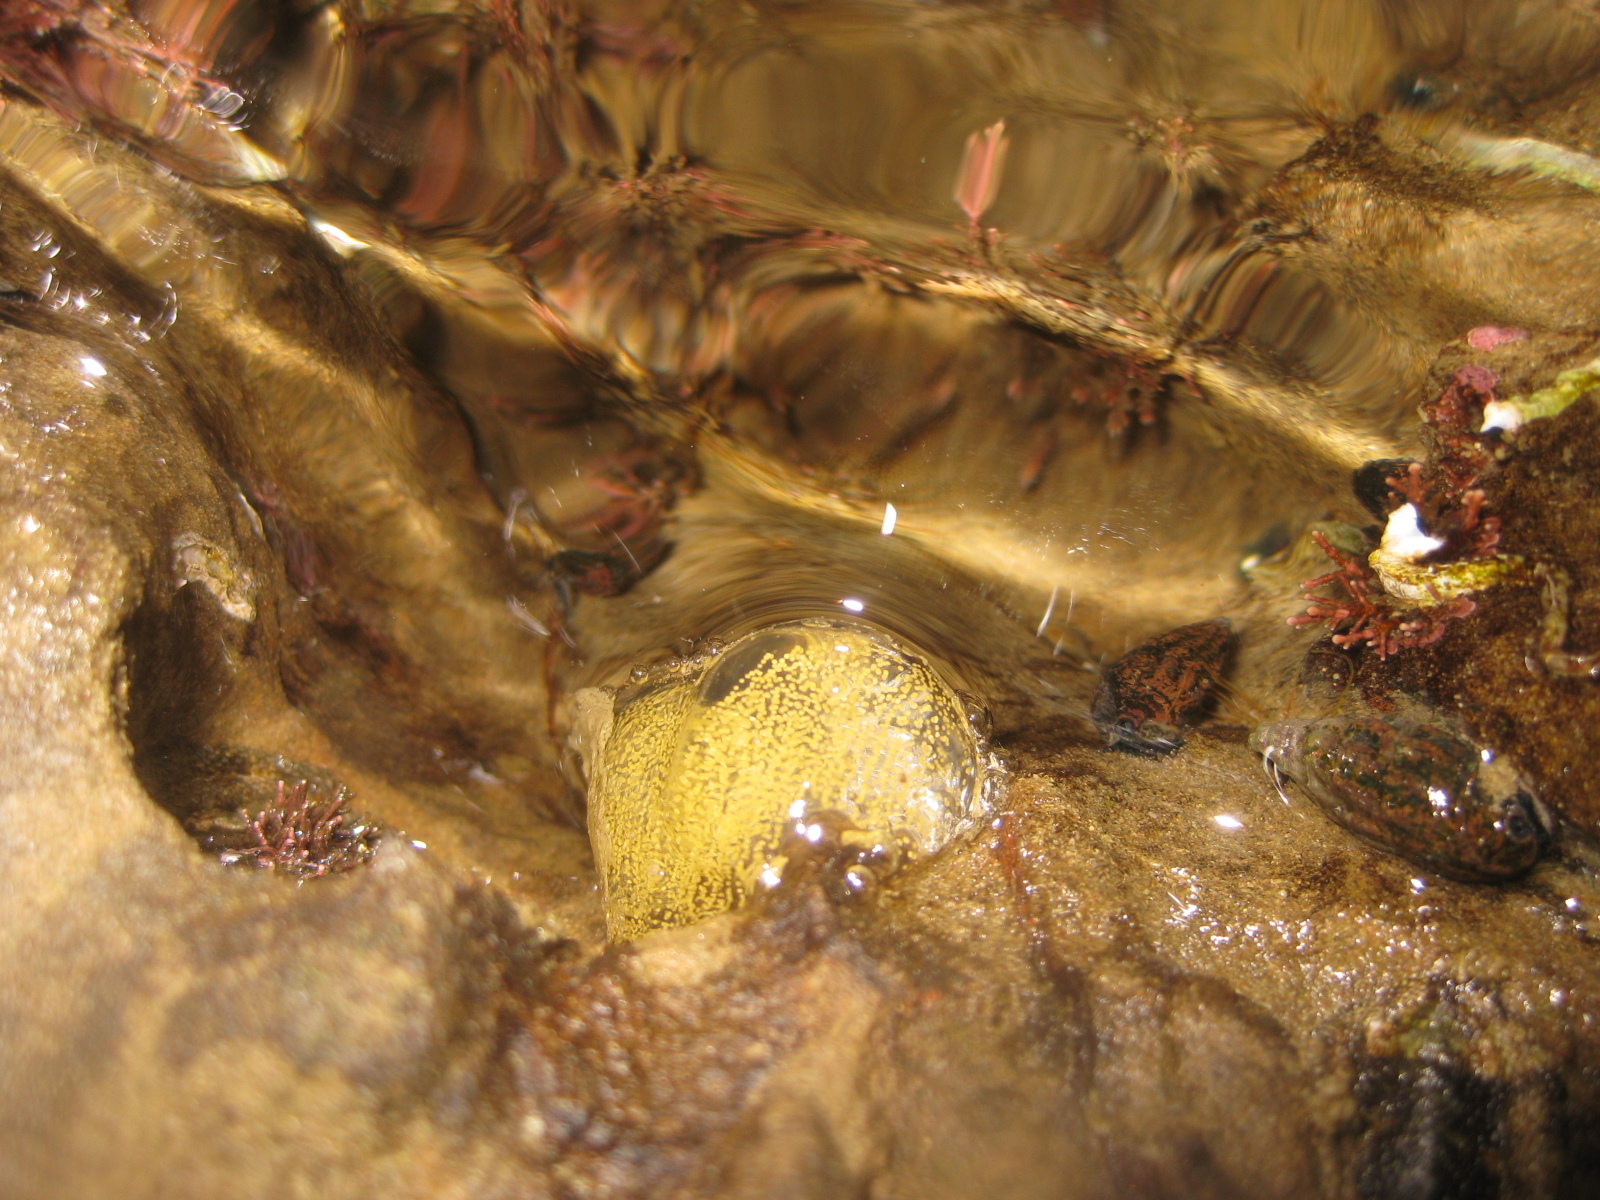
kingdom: Animalia
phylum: Mollusca
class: Gastropoda
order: Cephalaspidea
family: Haminoeidae
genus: Papawera
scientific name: Papawera zelandiae
